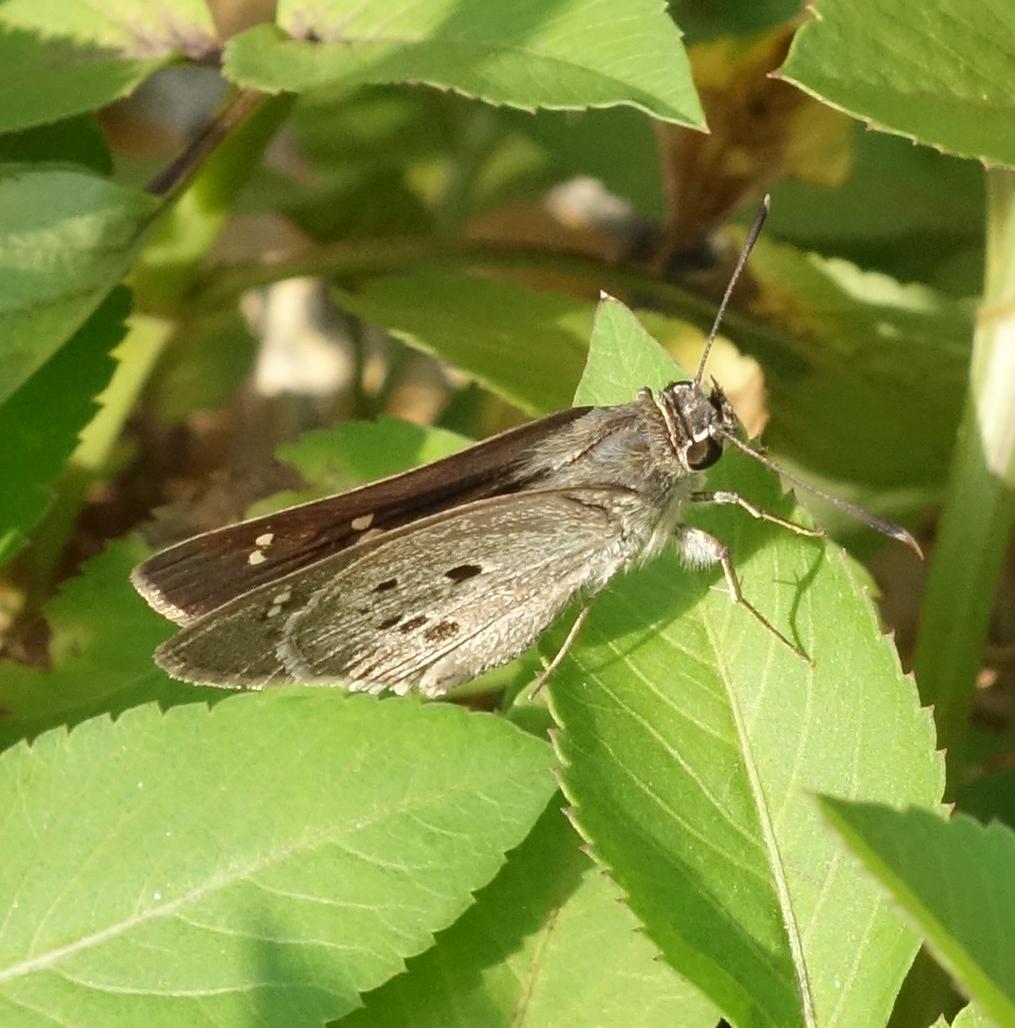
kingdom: Animalia
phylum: Arthropoda
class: Insecta
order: Lepidoptera
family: Hesperiidae
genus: Suastus
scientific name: Suastus gremius
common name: Indian palm bob
